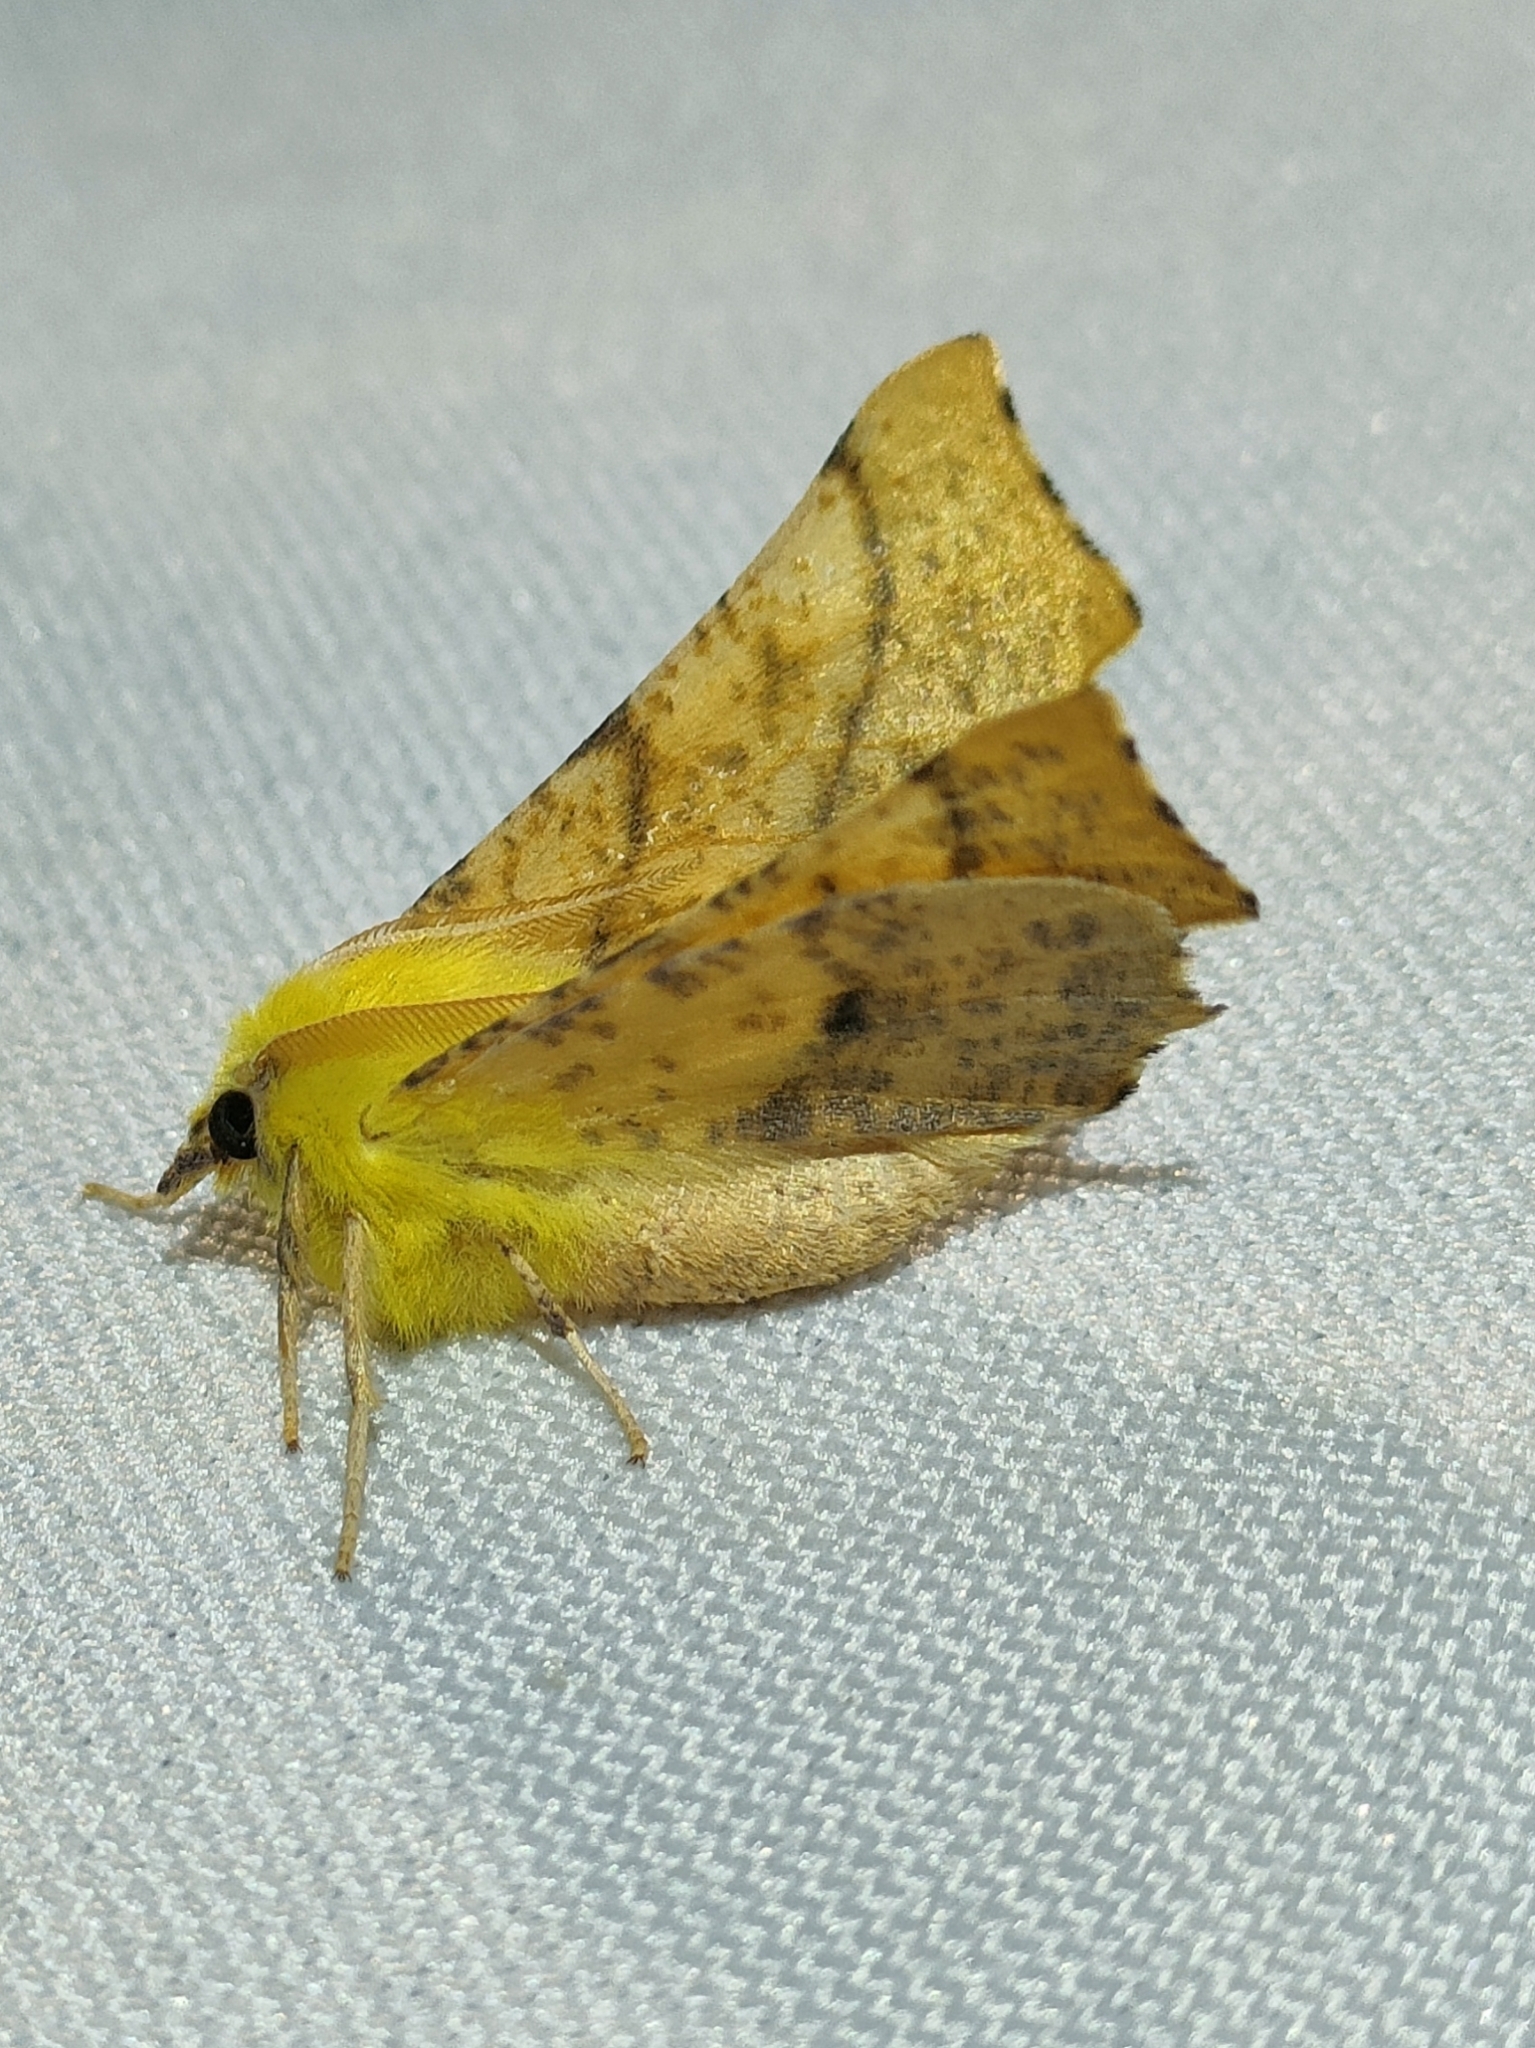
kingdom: Animalia
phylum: Arthropoda
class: Insecta
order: Lepidoptera
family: Geometridae
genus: Ennomos
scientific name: Ennomos alniaria
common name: Canary-shouldered thorn
